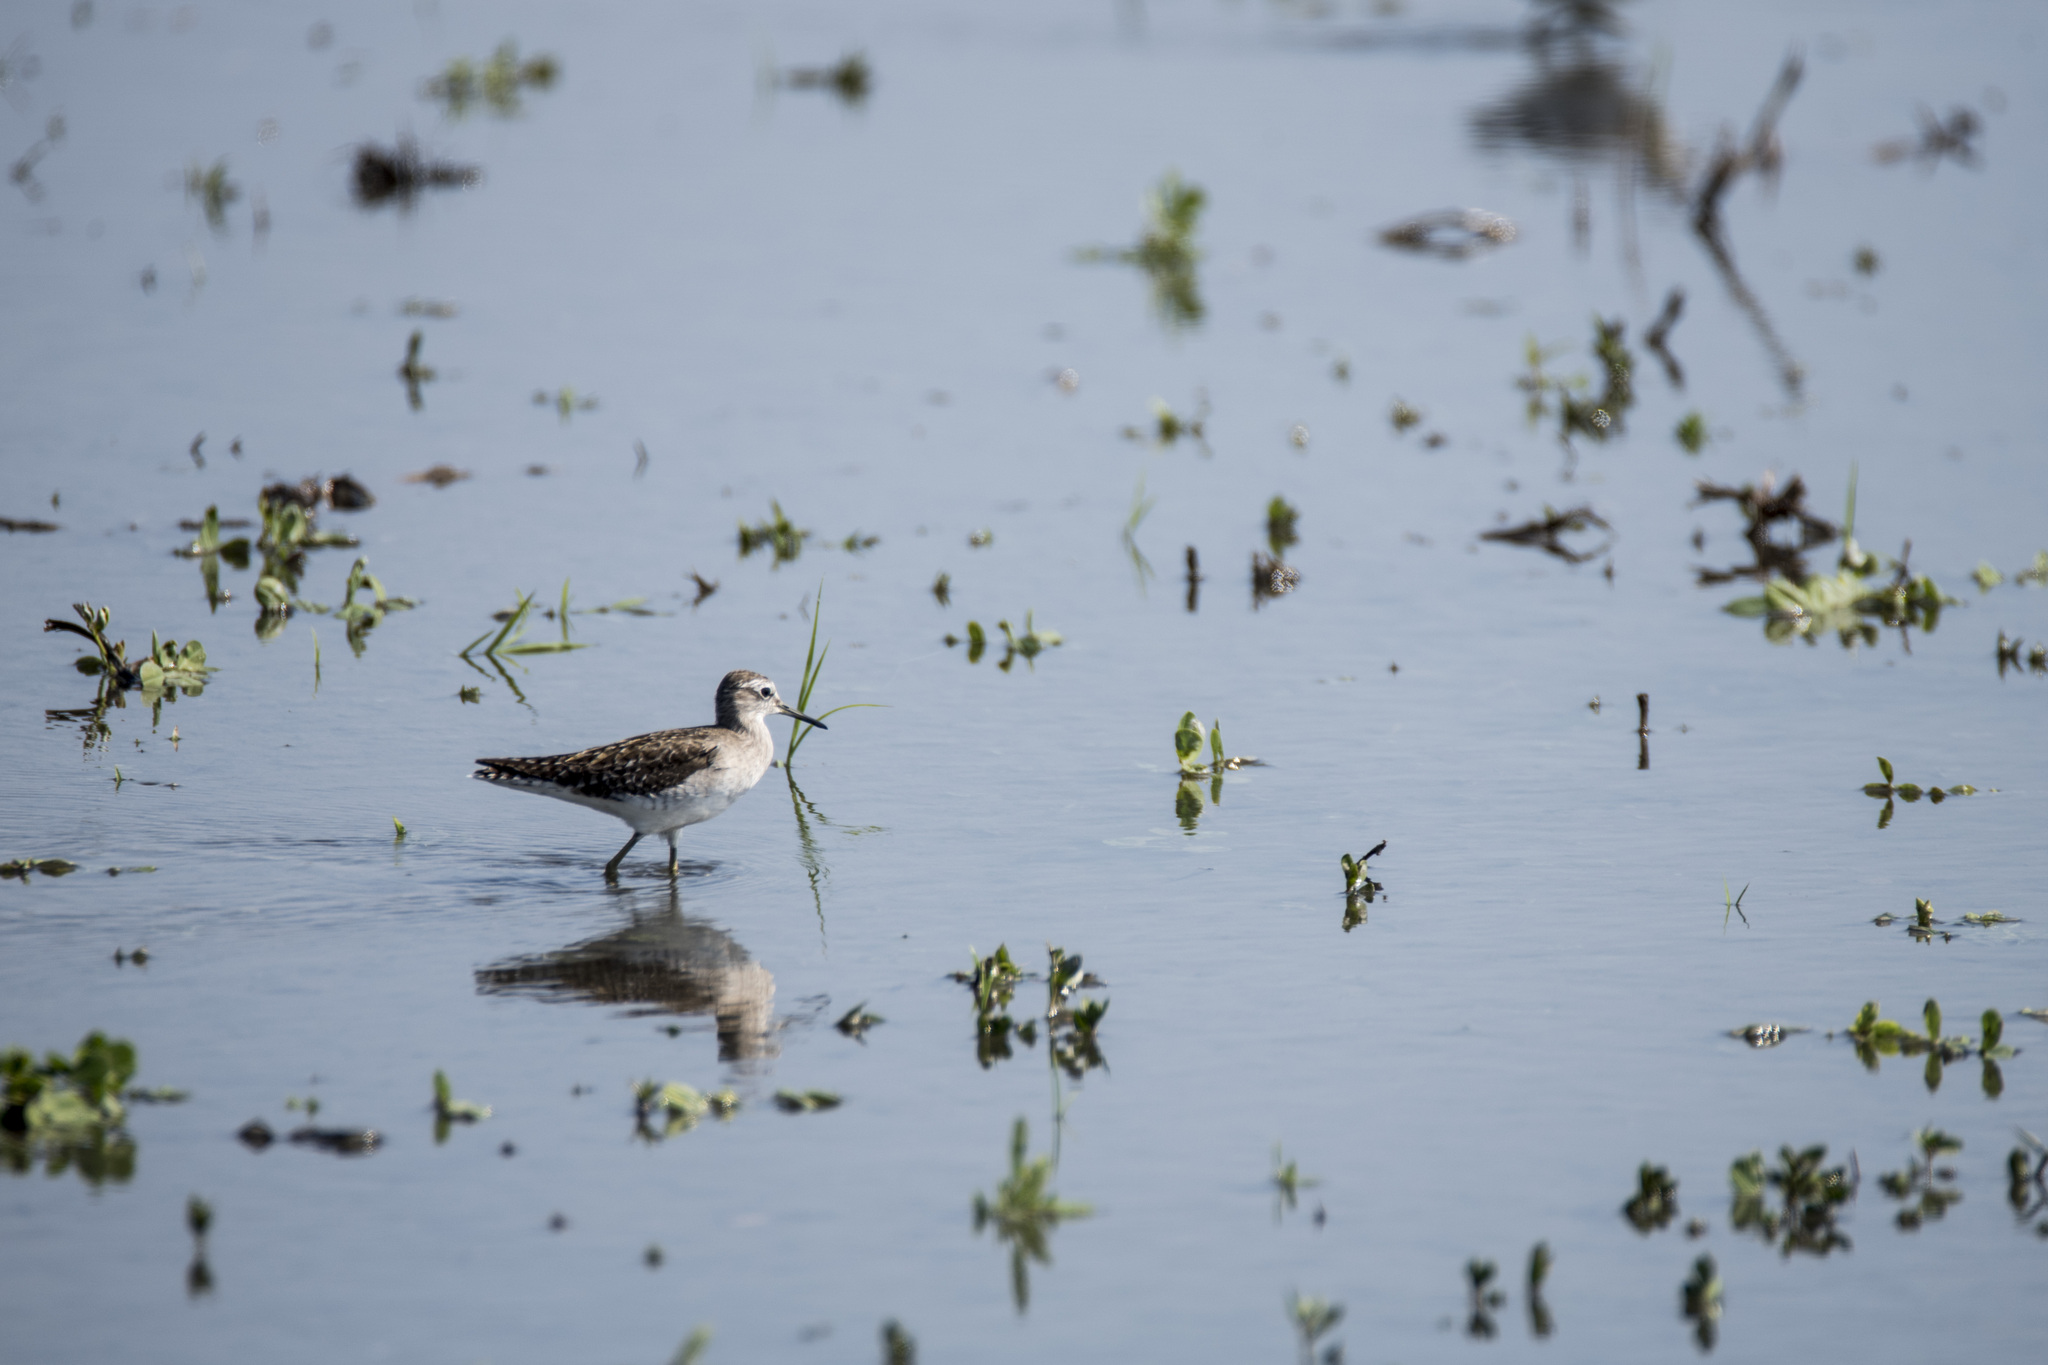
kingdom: Animalia
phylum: Chordata
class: Aves
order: Charadriiformes
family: Scolopacidae
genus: Tringa
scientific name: Tringa glareola
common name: Wood sandpiper
